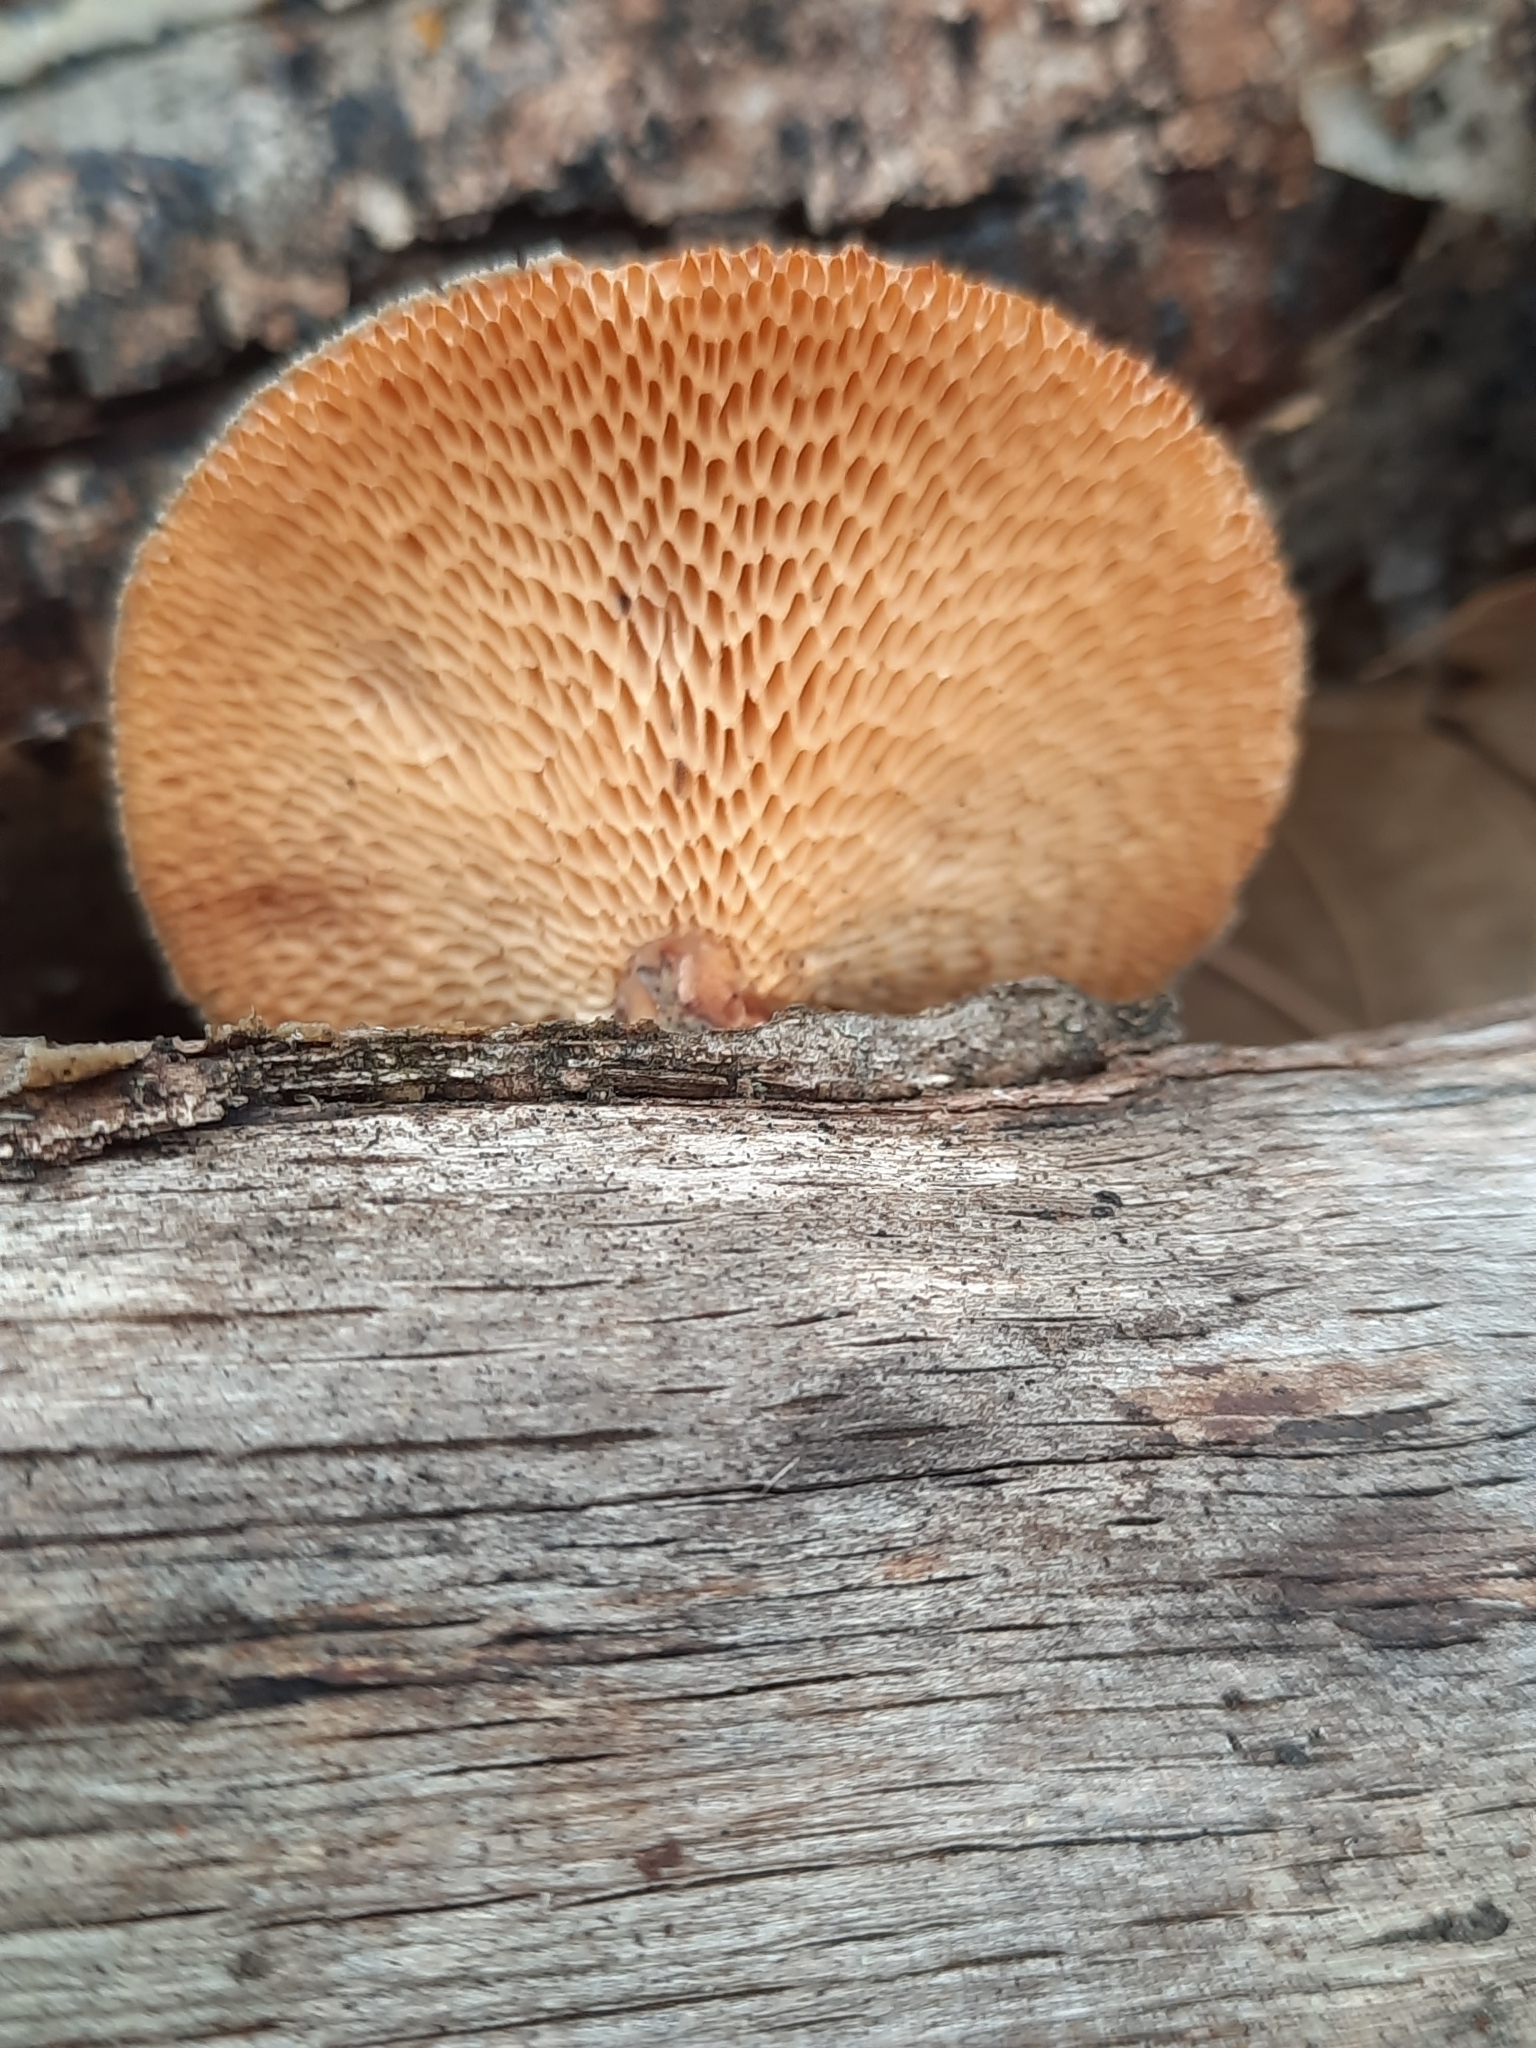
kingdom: Fungi
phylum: Basidiomycota
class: Agaricomycetes
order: Polyporales
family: Polyporaceae
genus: Neofavolus
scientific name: Neofavolus
